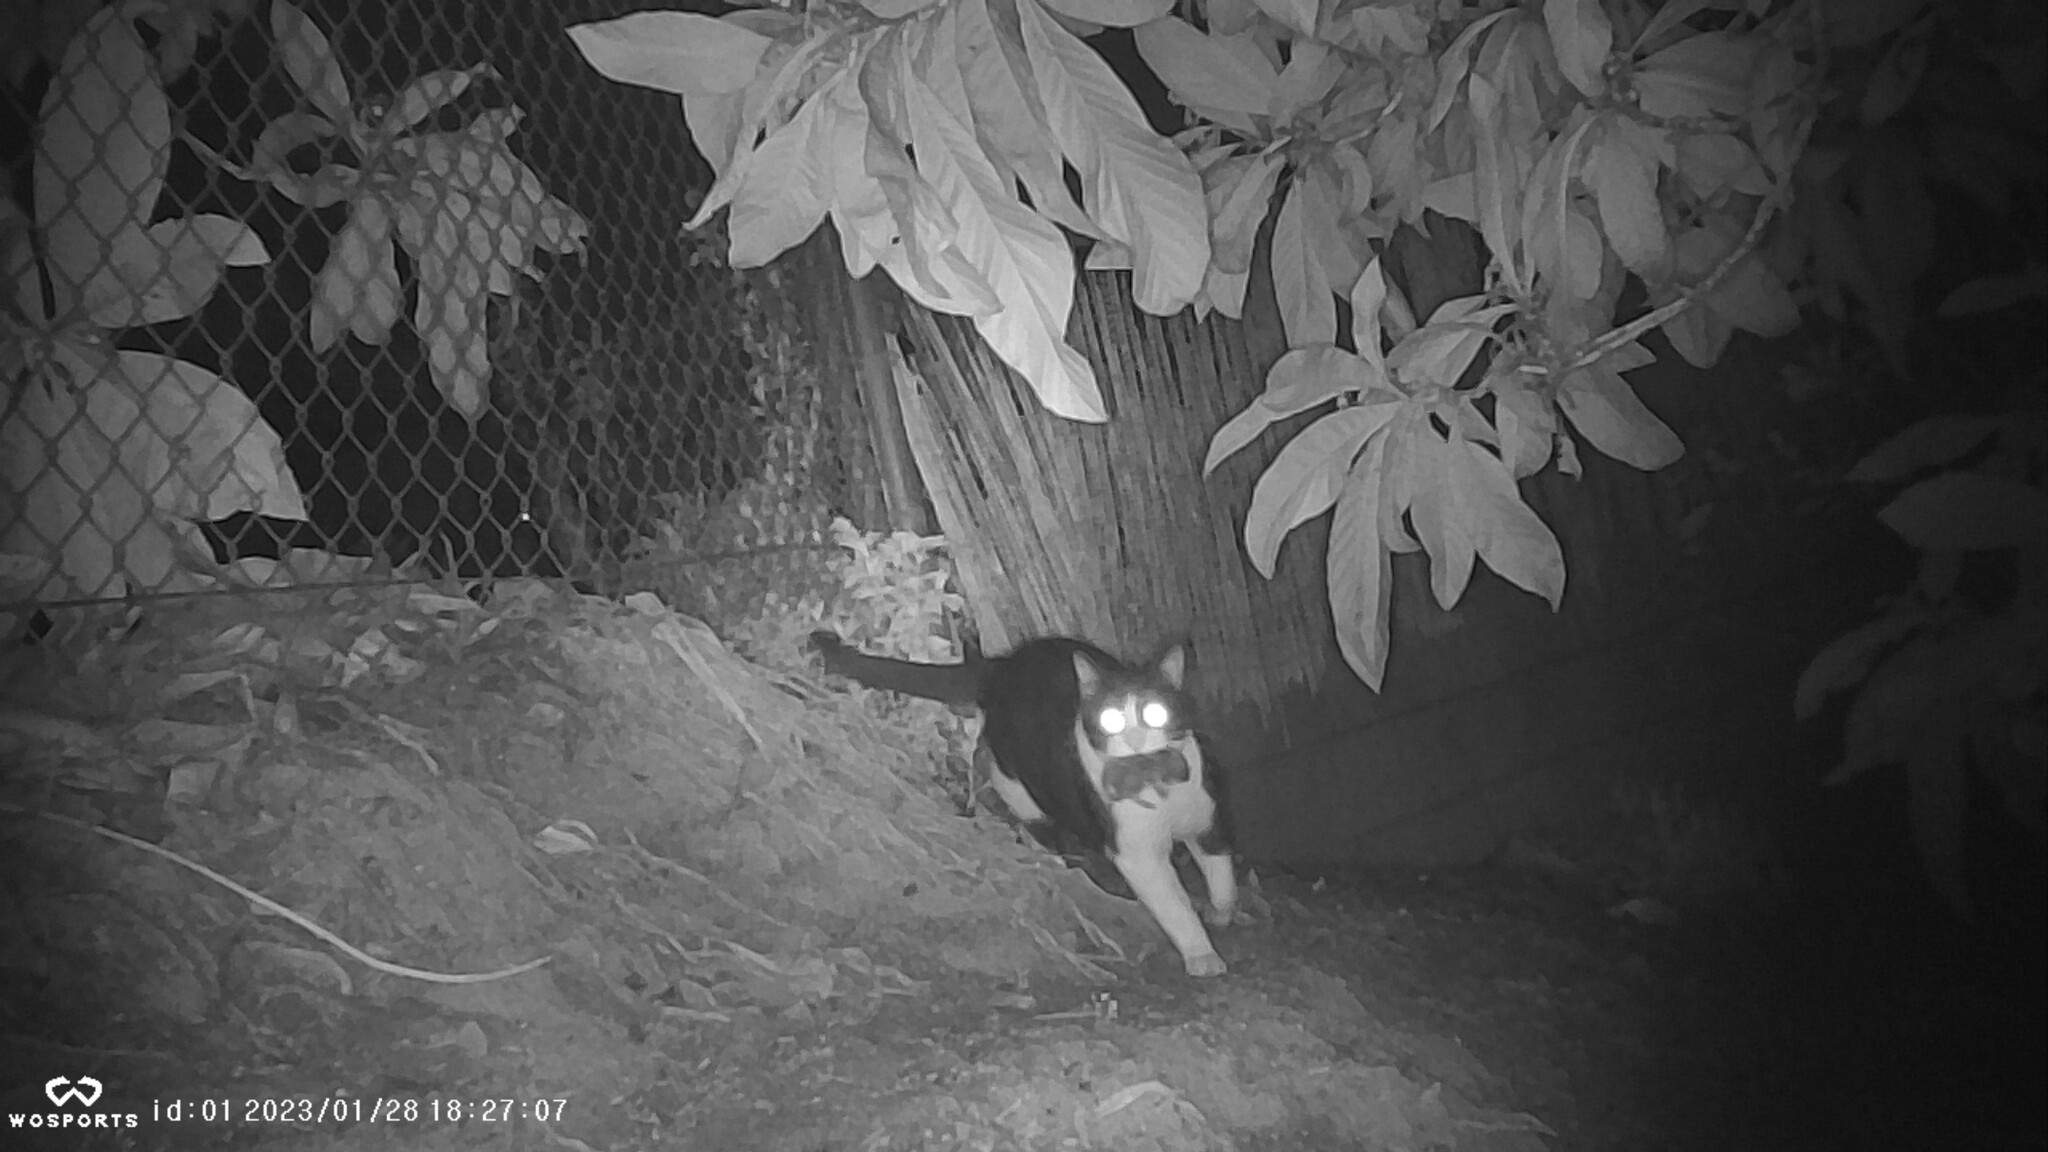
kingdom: Animalia
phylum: Chordata
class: Mammalia
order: Carnivora
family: Felidae
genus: Felis
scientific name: Felis catus
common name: Domestic cat
